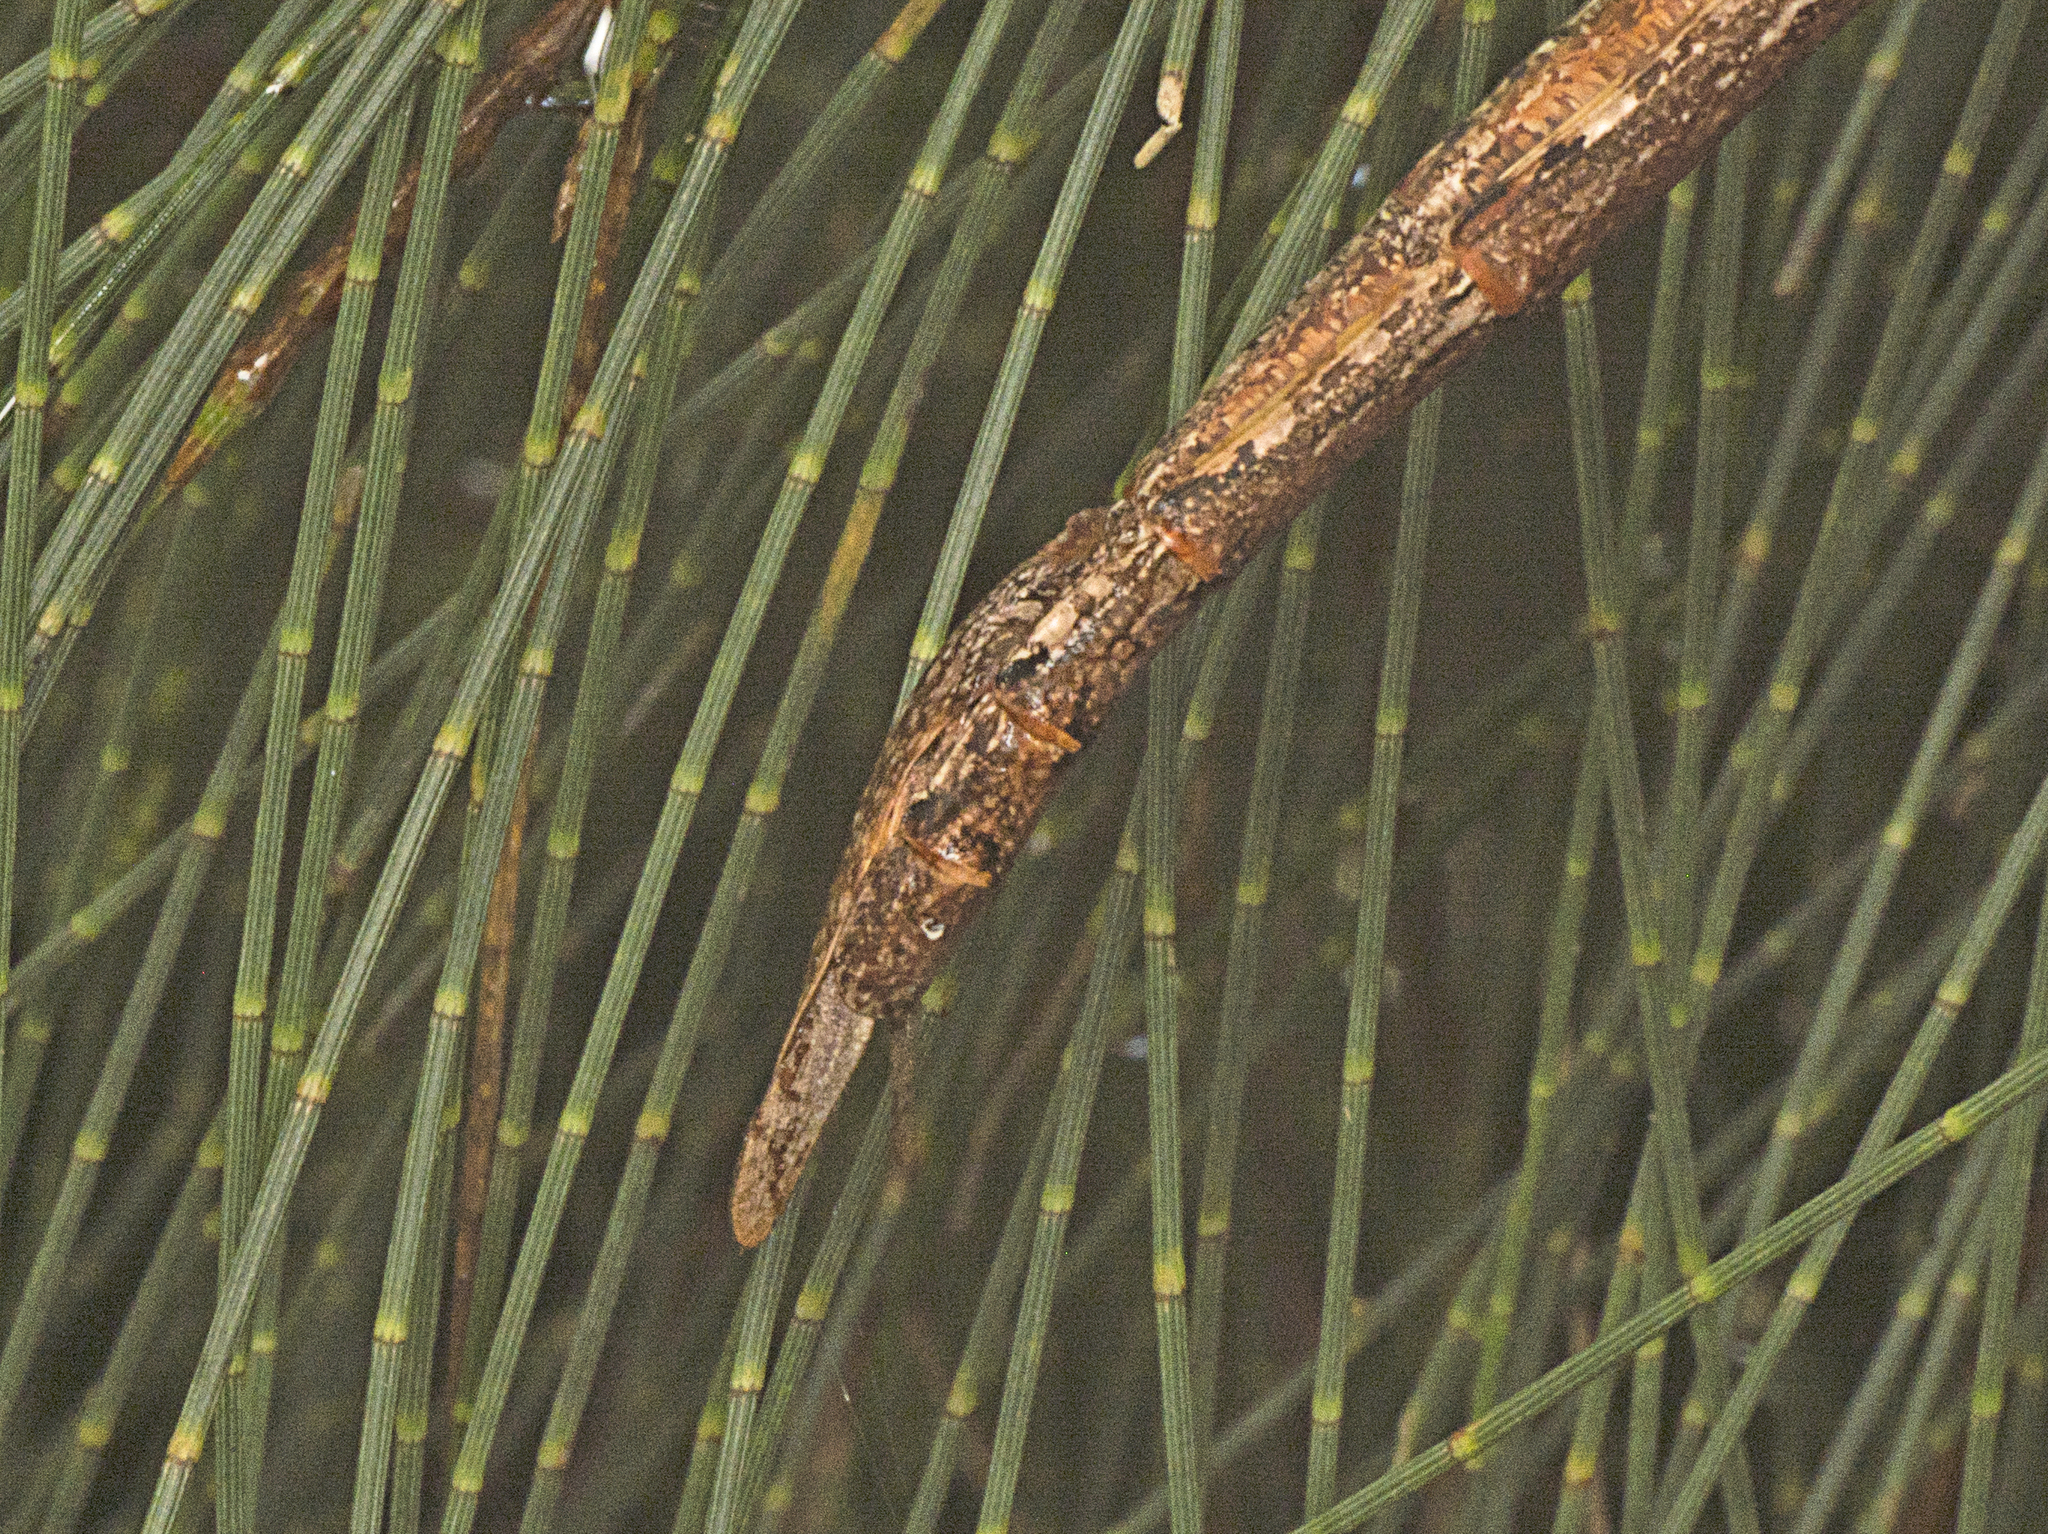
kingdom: Animalia
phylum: Arthropoda
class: Insecta
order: Phasmida
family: Phasmatidae
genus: Anchiale
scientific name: Anchiale austrotessulata
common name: Tessellated stick-insect
